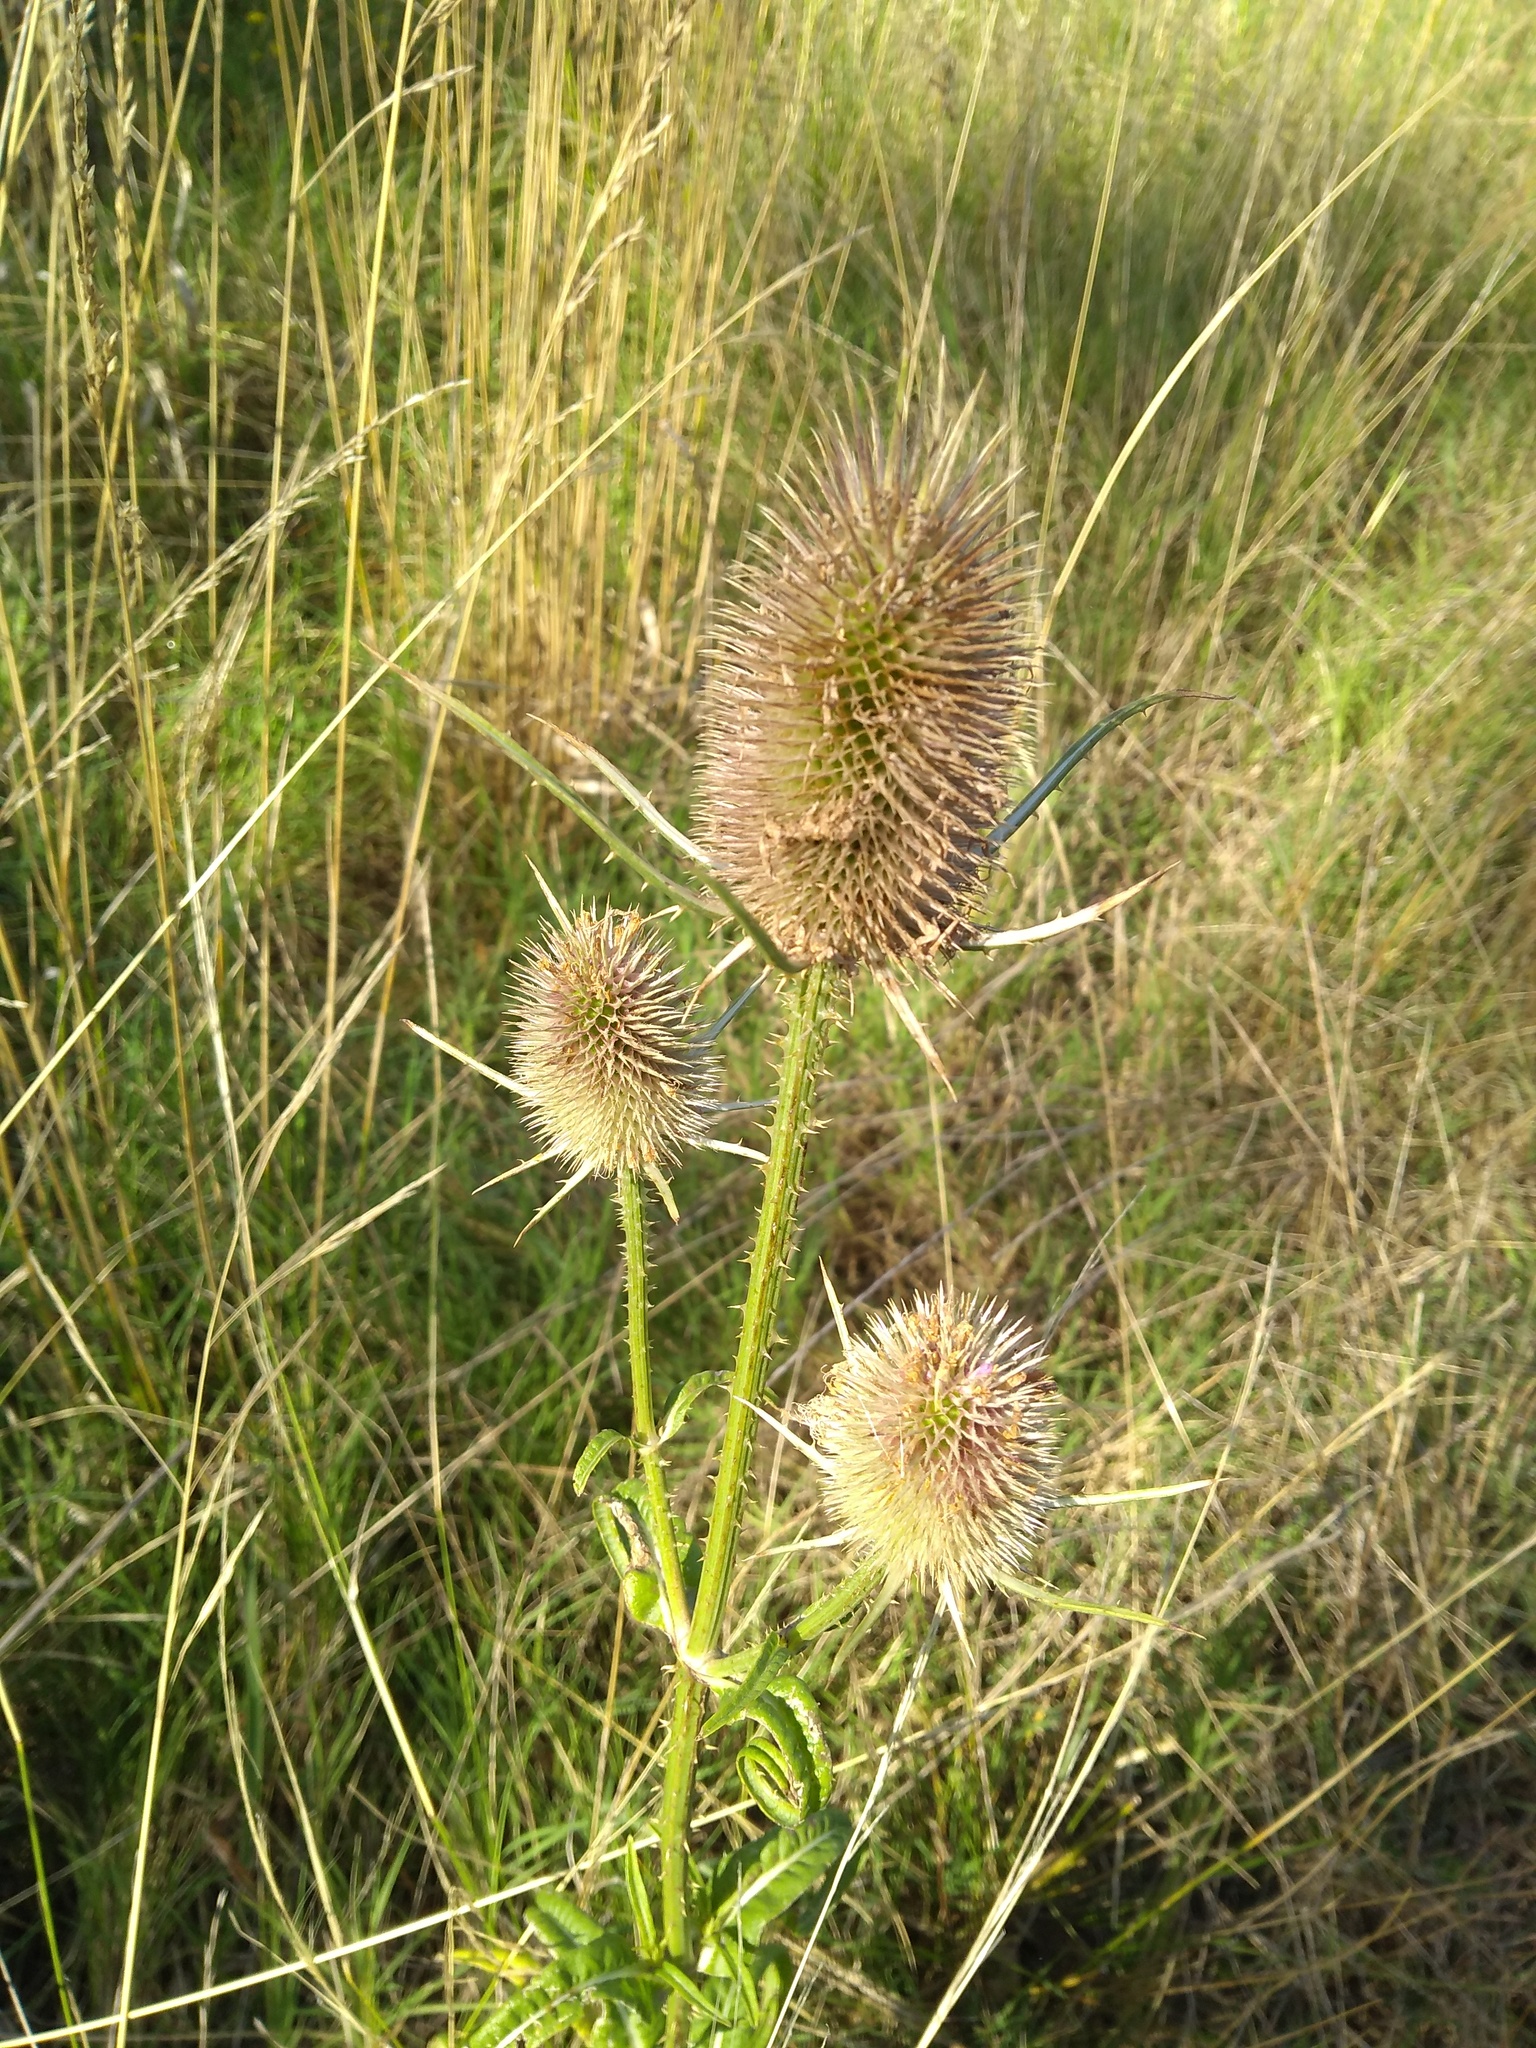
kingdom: Plantae
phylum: Tracheophyta
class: Magnoliopsida
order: Dipsacales
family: Caprifoliaceae
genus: Dipsacus
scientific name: Dipsacus fullonum
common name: Teasel
